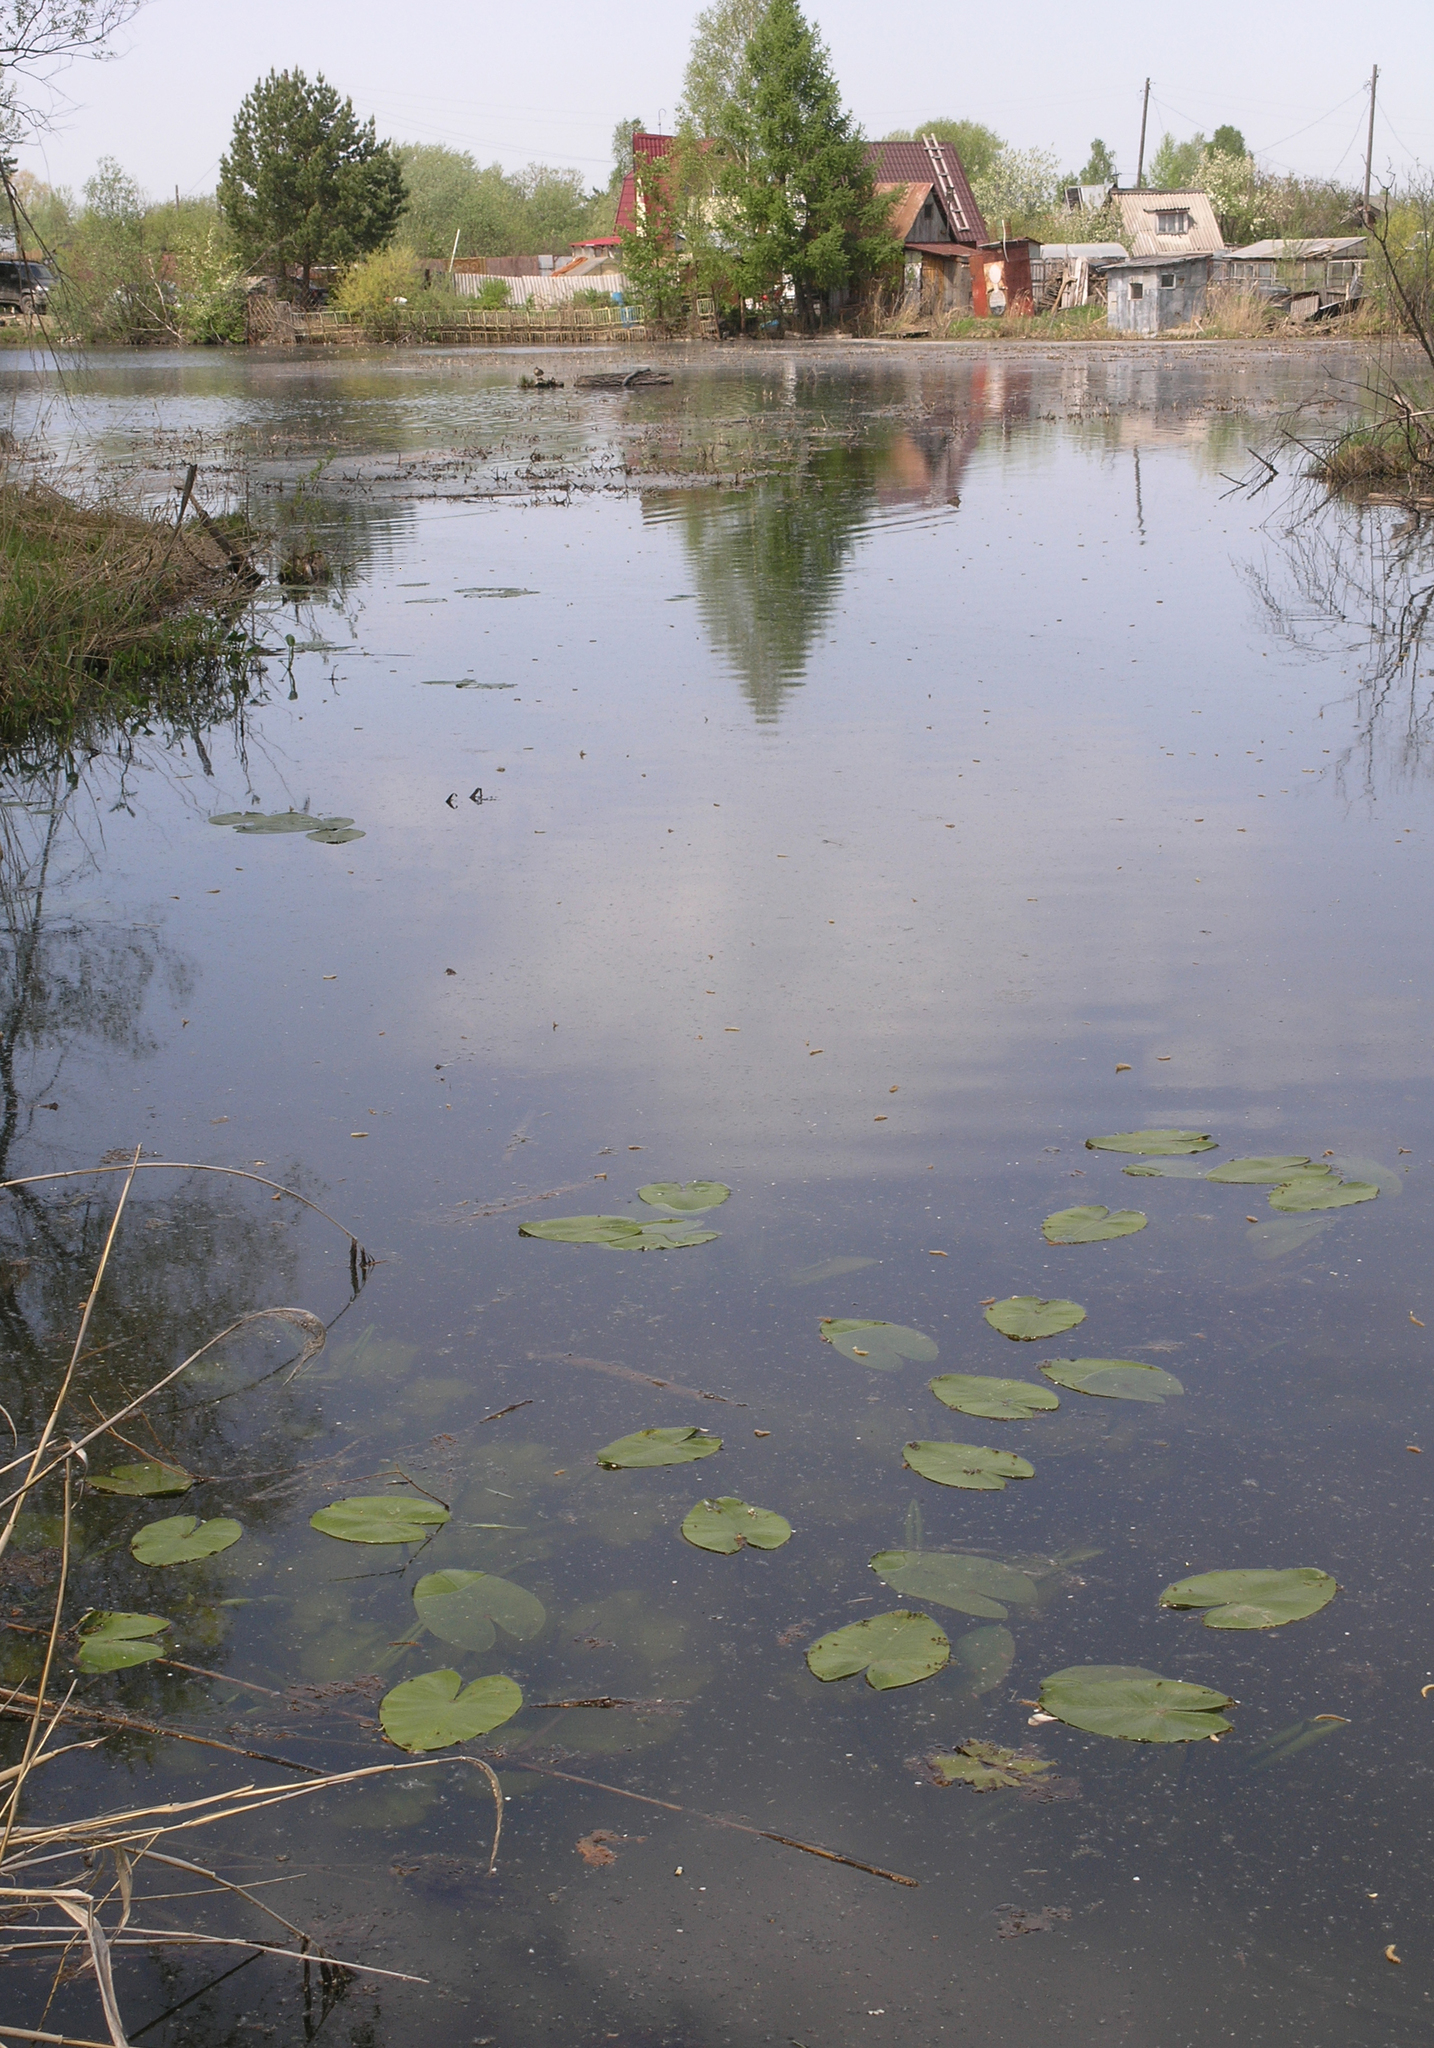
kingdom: Plantae
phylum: Tracheophyta
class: Magnoliopsida
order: Nymphaeales
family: Nymphaeaceae
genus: Nuphar
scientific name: Nuphar lutea
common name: Yellow water-lily
